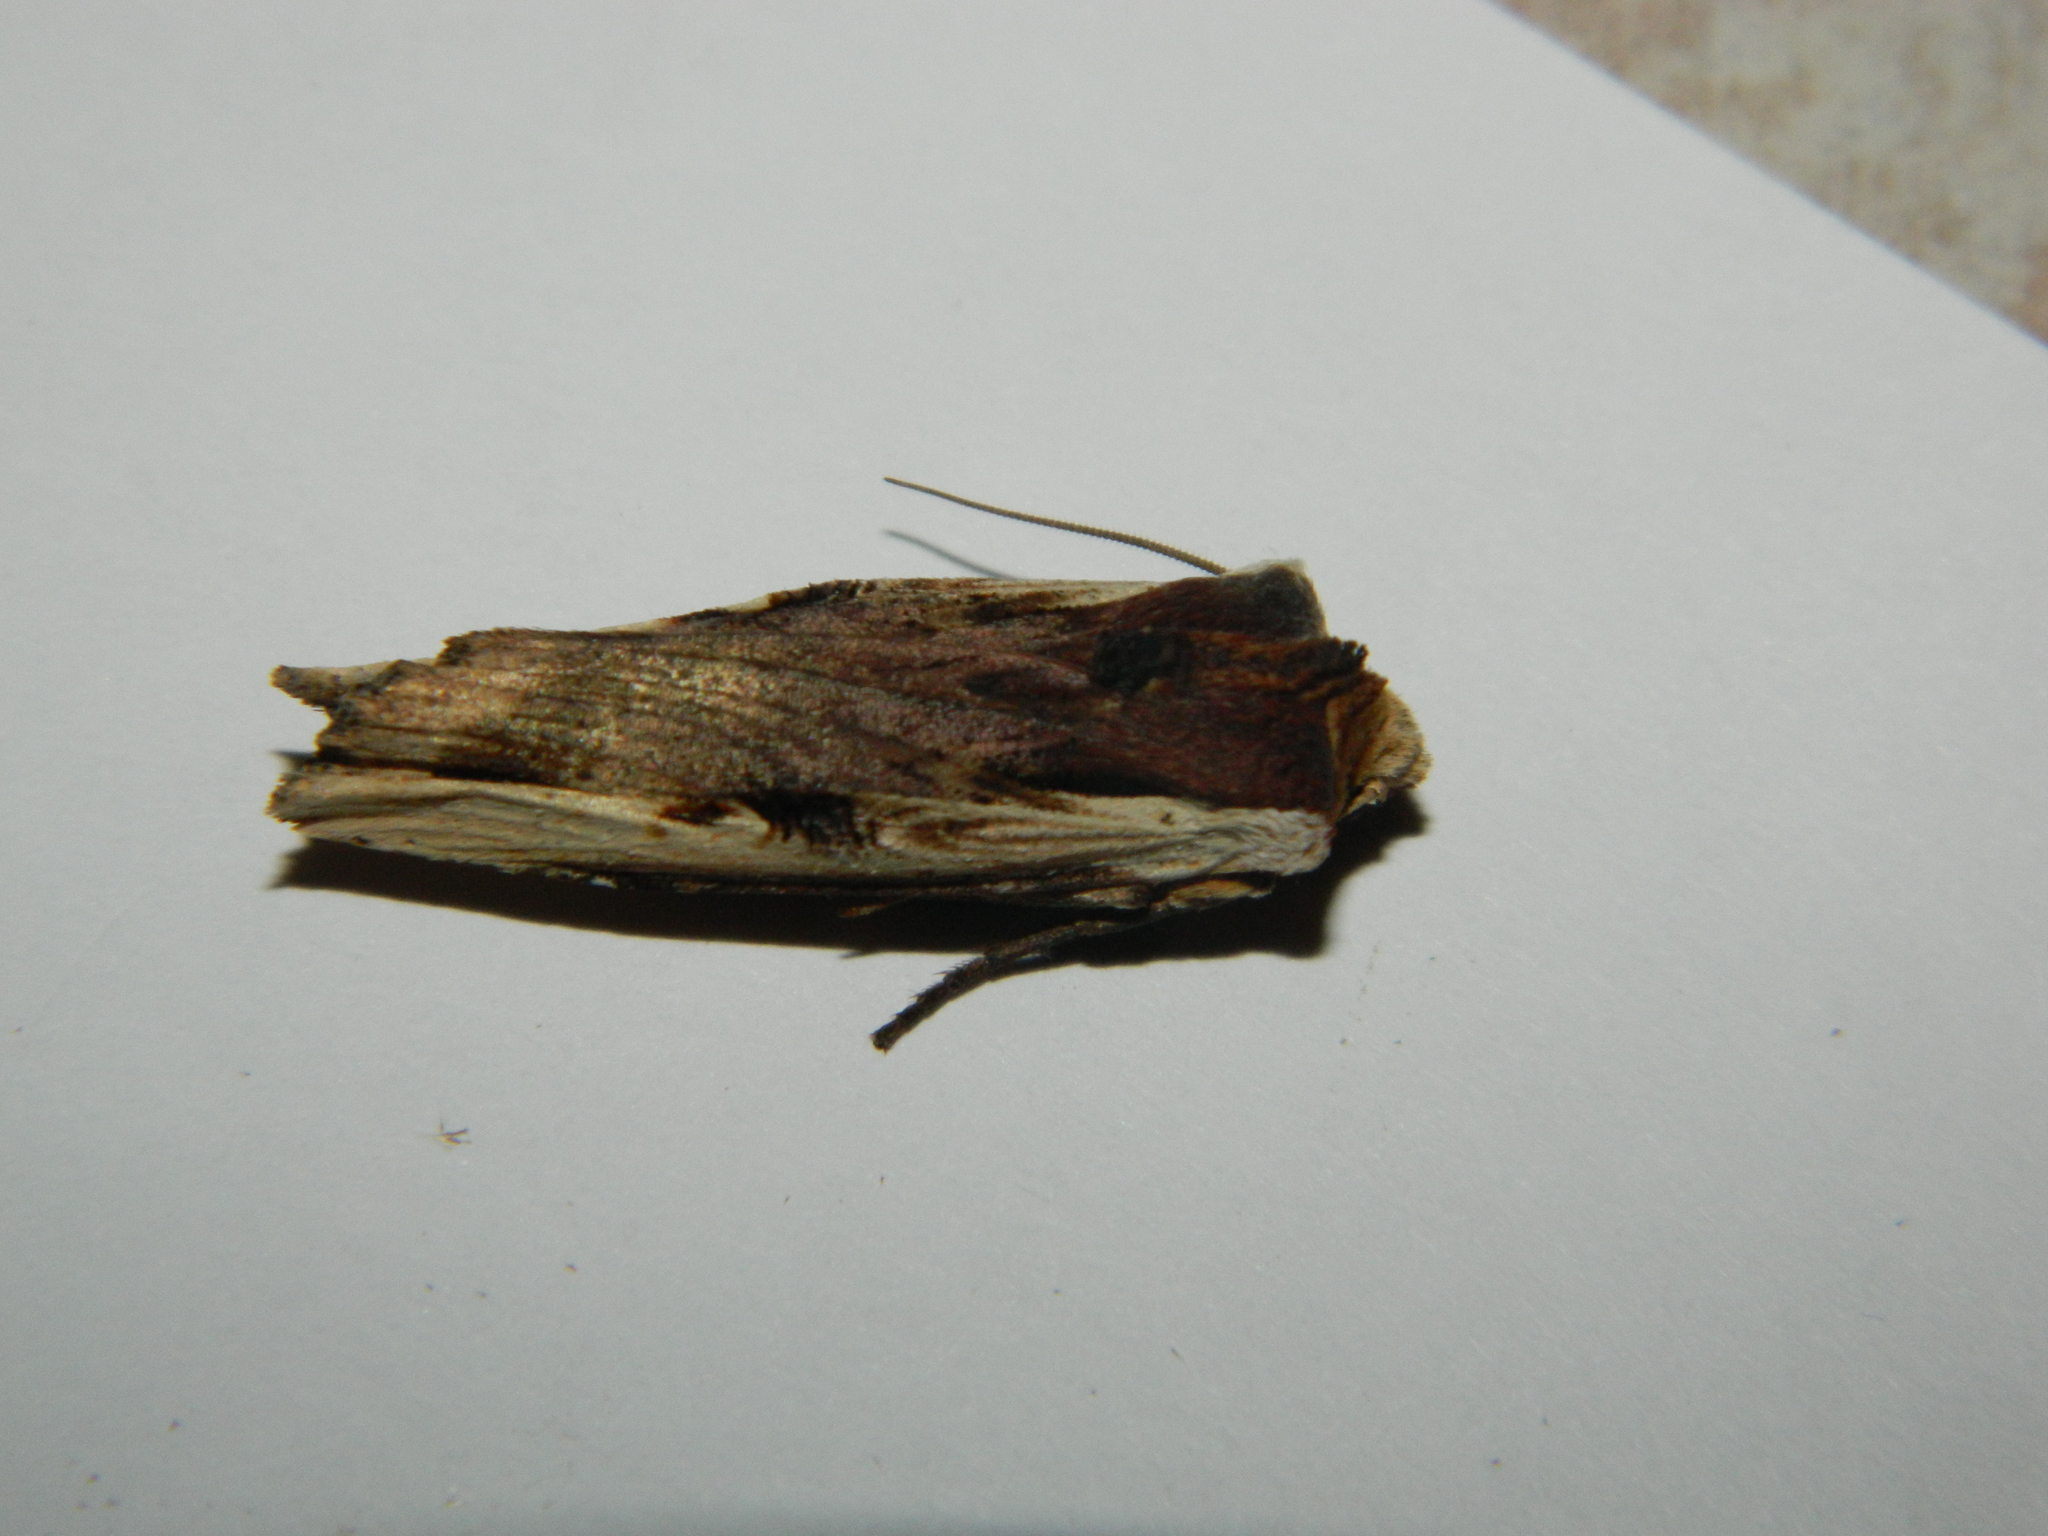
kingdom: Animalia
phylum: Arthropoda
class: Insecta
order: Lepidoptera
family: Noctuidae
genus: Xylena
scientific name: Xylena curvimacula
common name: Dot-and-dash swordgrass moth
